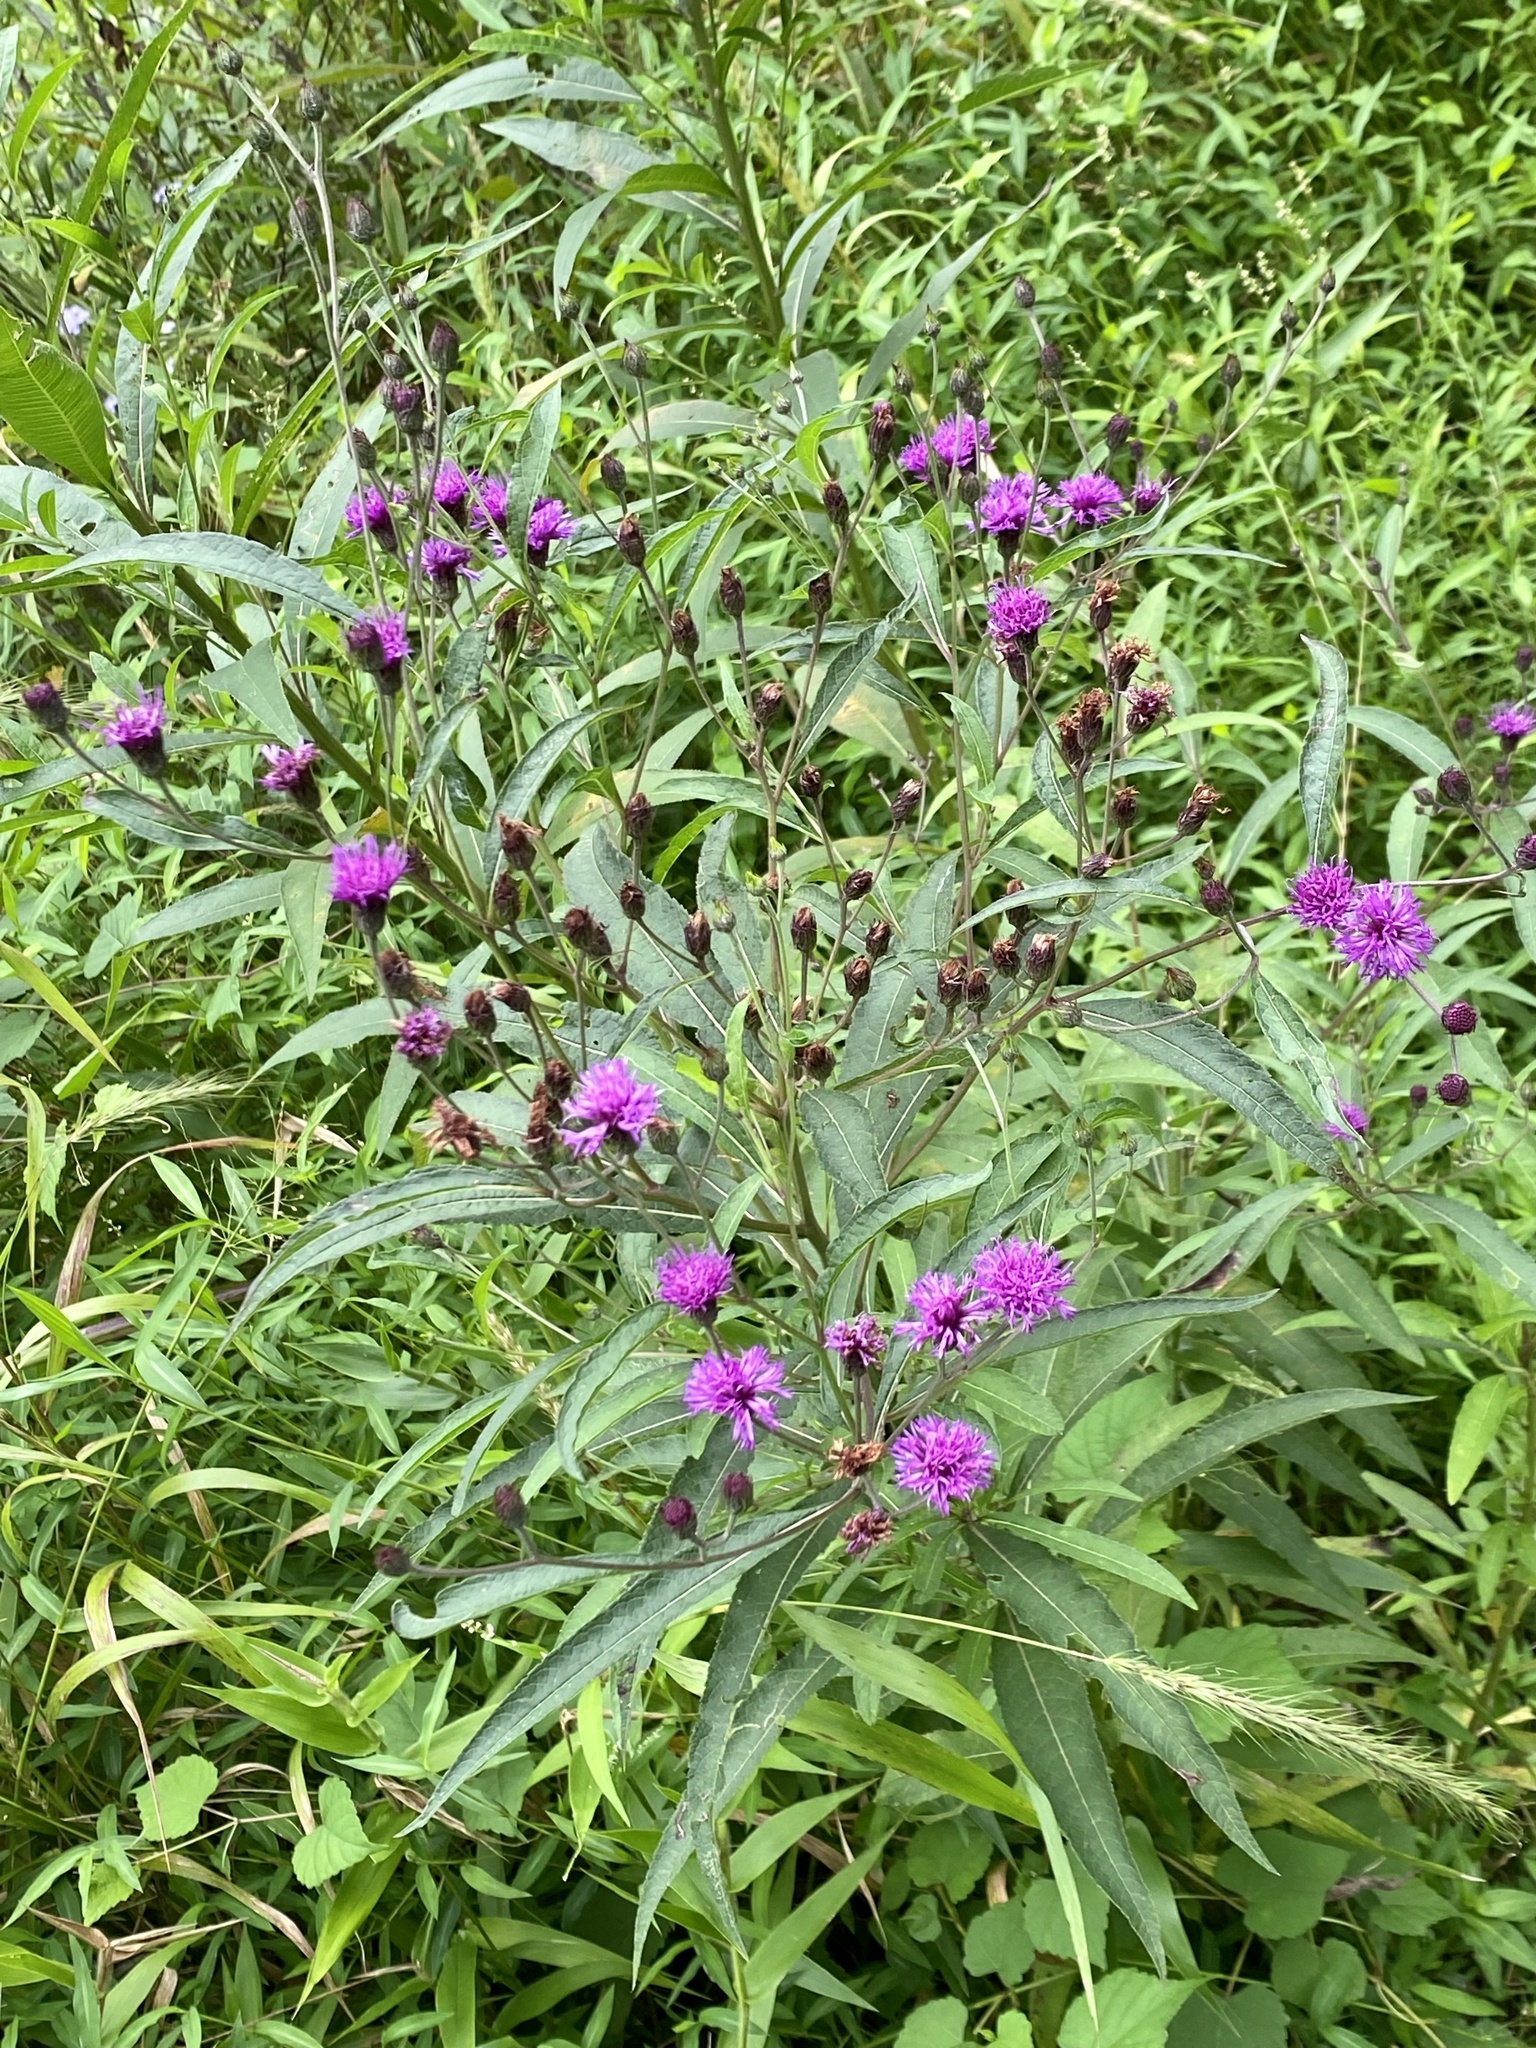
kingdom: Plantae
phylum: Tracheophyta
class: Magnoliopsida
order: Asterales
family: Asteraceae
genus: Vernonia
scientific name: Vernonia noveboracensis
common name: New york ironweed
